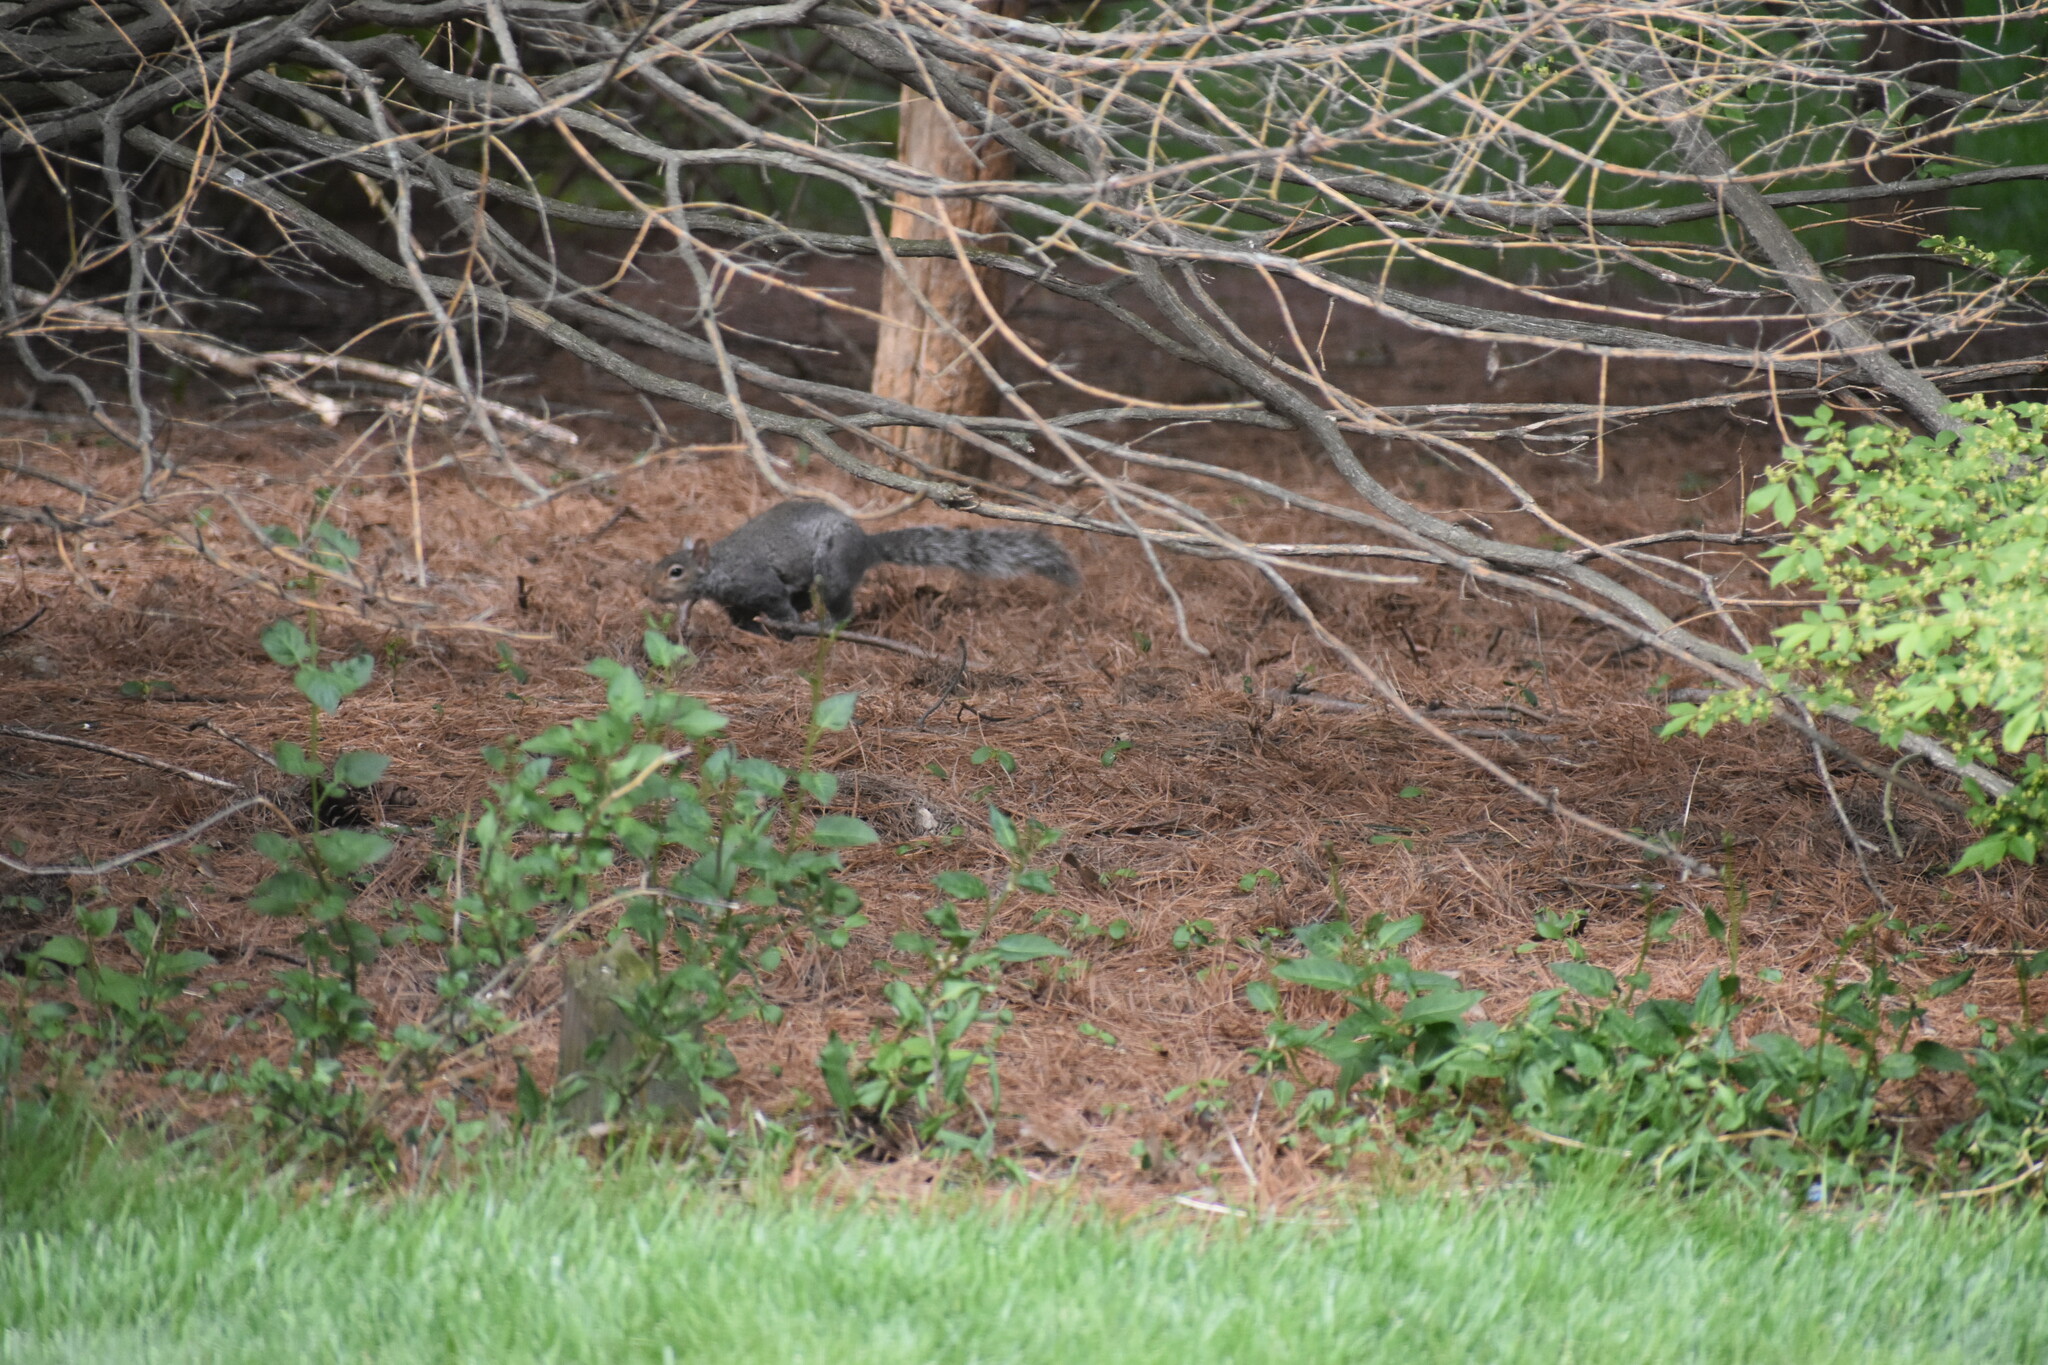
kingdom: Animalia
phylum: Chordata
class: Mammalia
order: Rodentia
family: Sciuridae
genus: Sciurus
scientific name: Sciurus carolinensis
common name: Eastern gray squirrel
